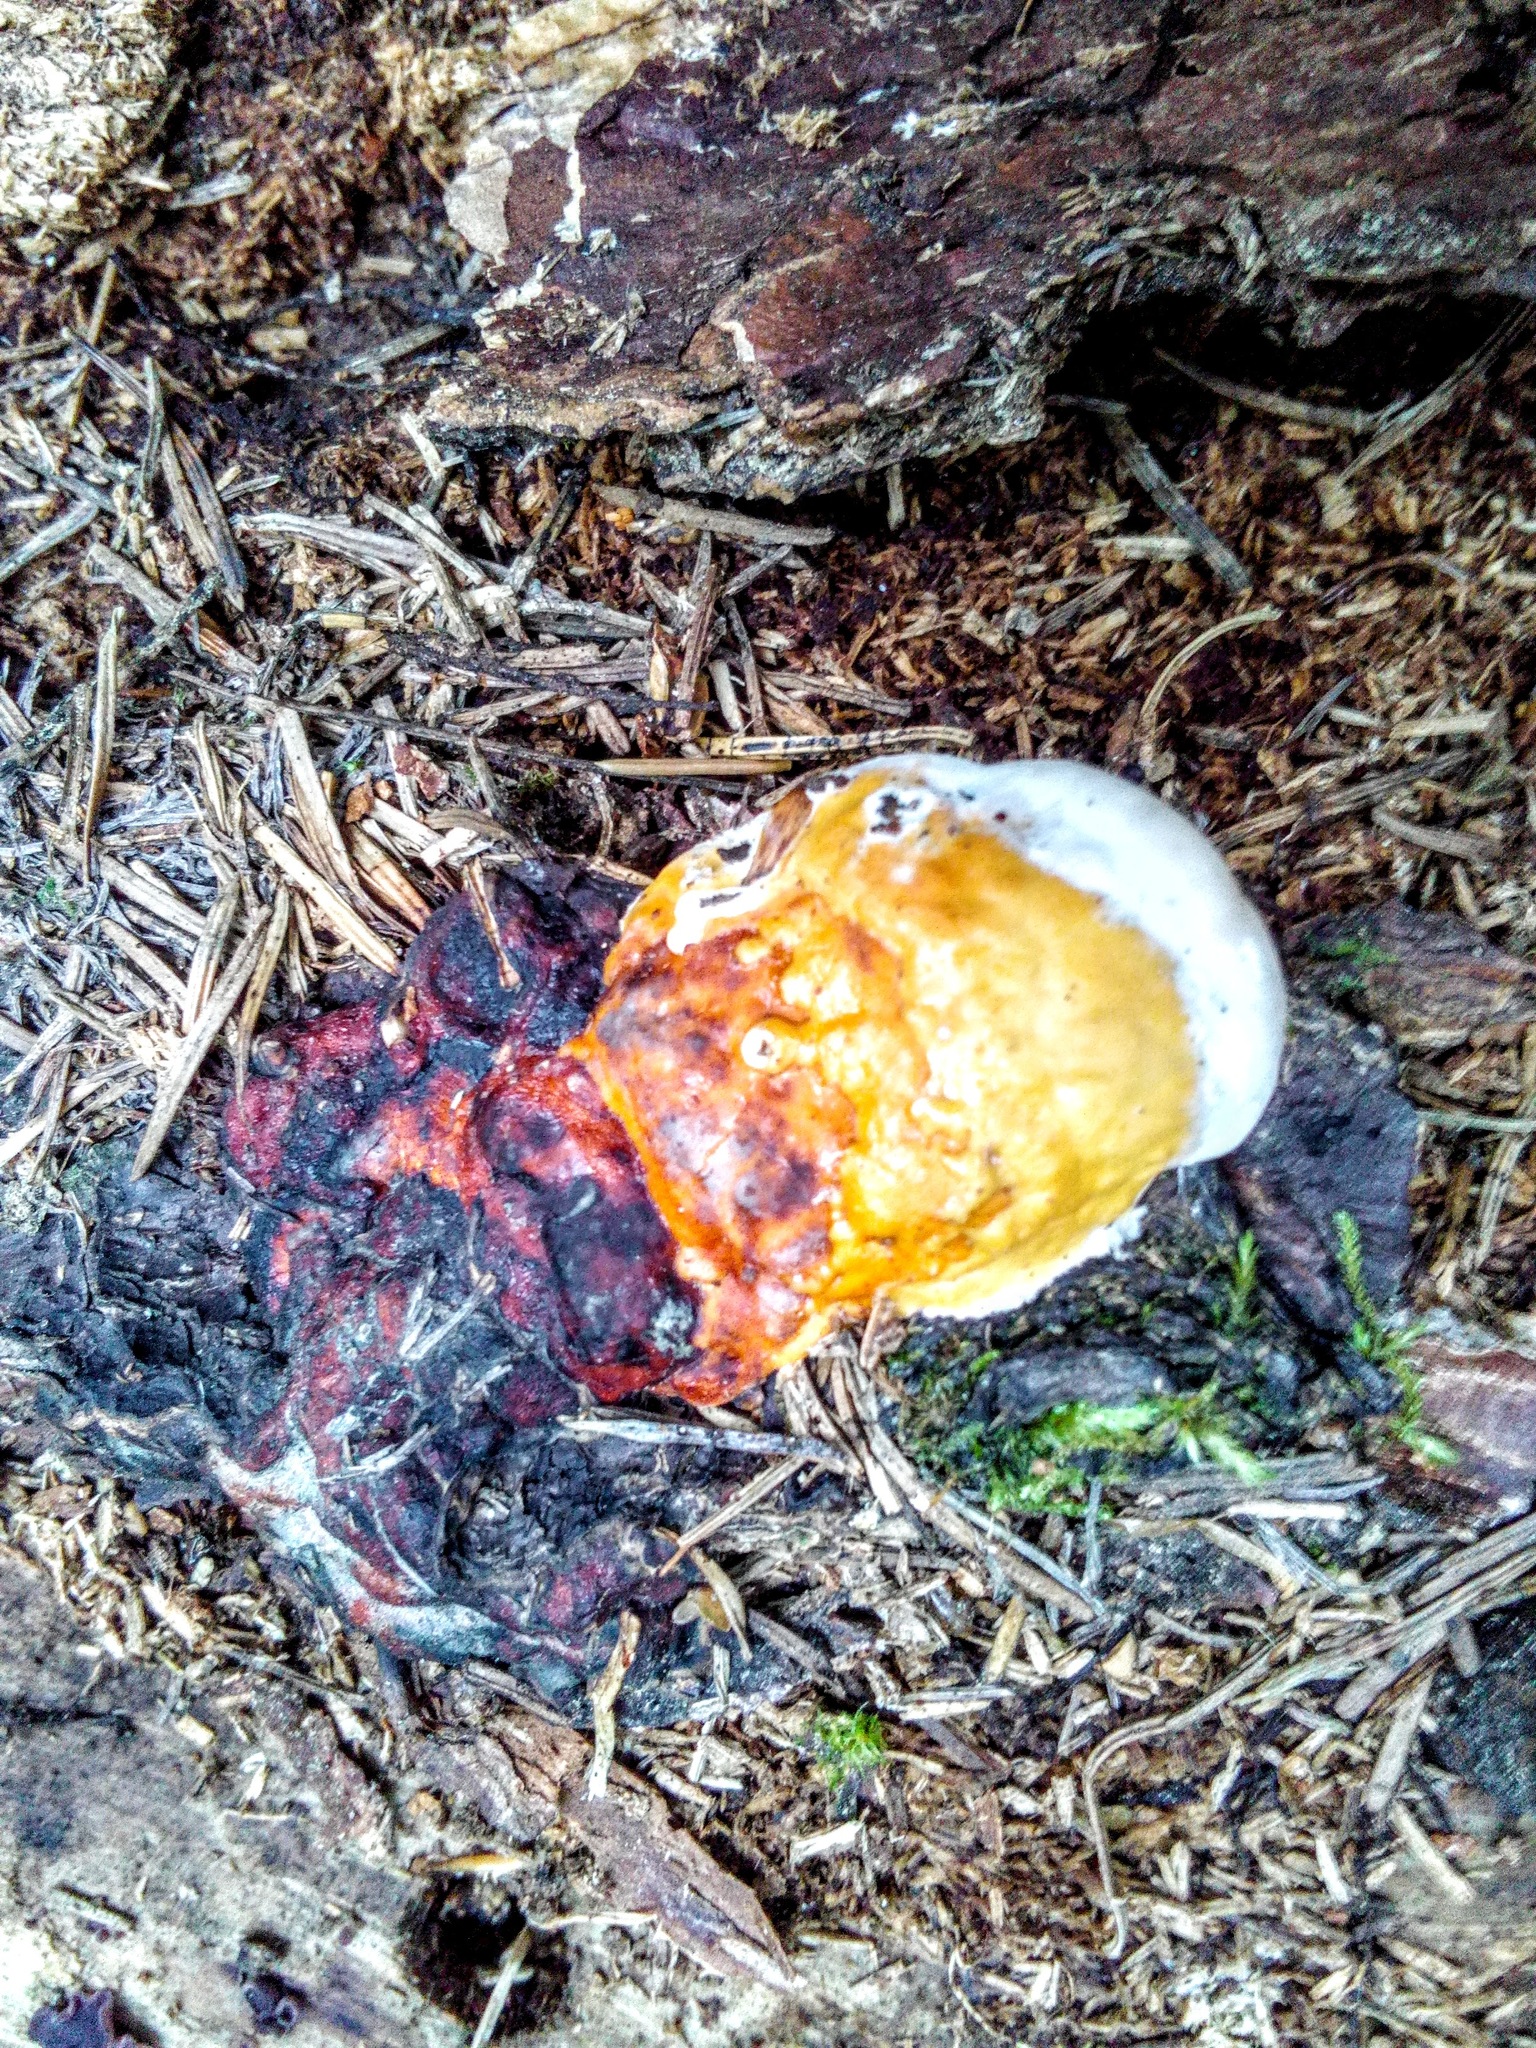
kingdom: Fungi
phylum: Basidiomycota
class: Agaricomycetes
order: Polyporales
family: Fomitopsidaceae
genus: Fomitopsis
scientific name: Fomitopsis pinicola
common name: Red-belted bracket
